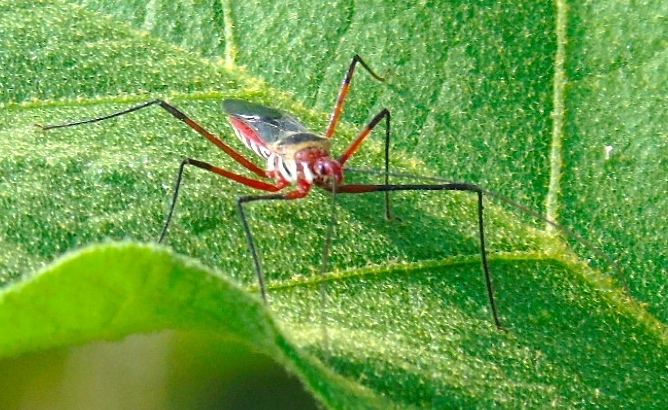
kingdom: Animalia
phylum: Arthropoda
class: Insecta
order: Hemiptera
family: Reduviidae
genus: Zelus
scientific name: Zelus grassans
